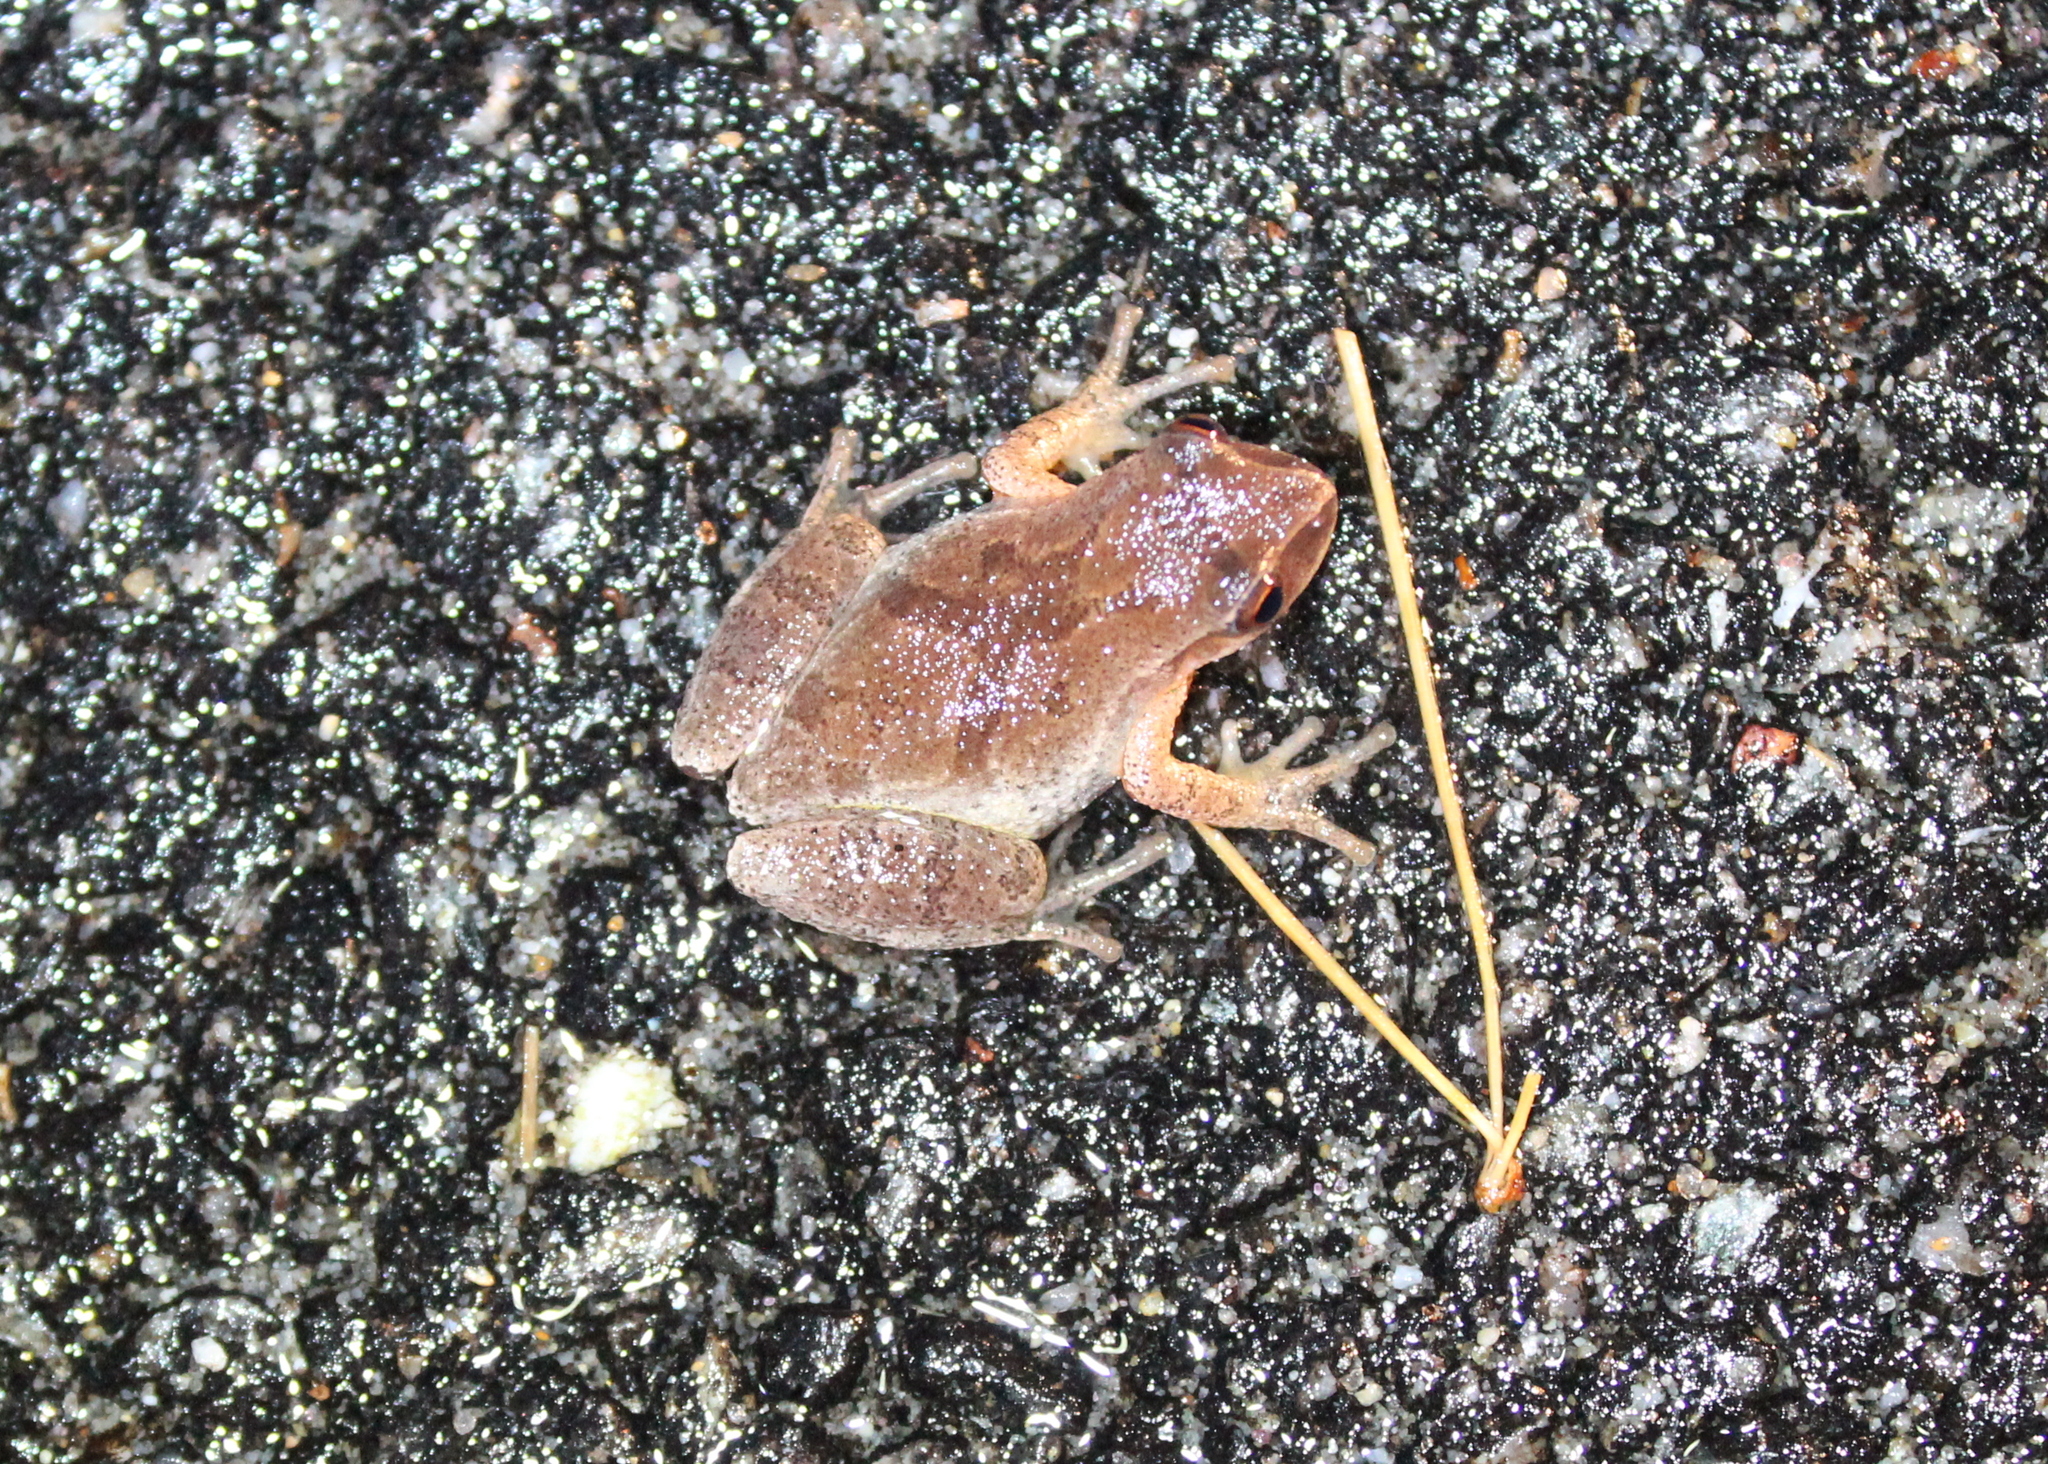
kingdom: Animalia
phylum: Chordata
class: Amphibia
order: Anura
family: Hylidae
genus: Pseudacris
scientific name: Pseudacris crucifer
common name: Spring peeper
